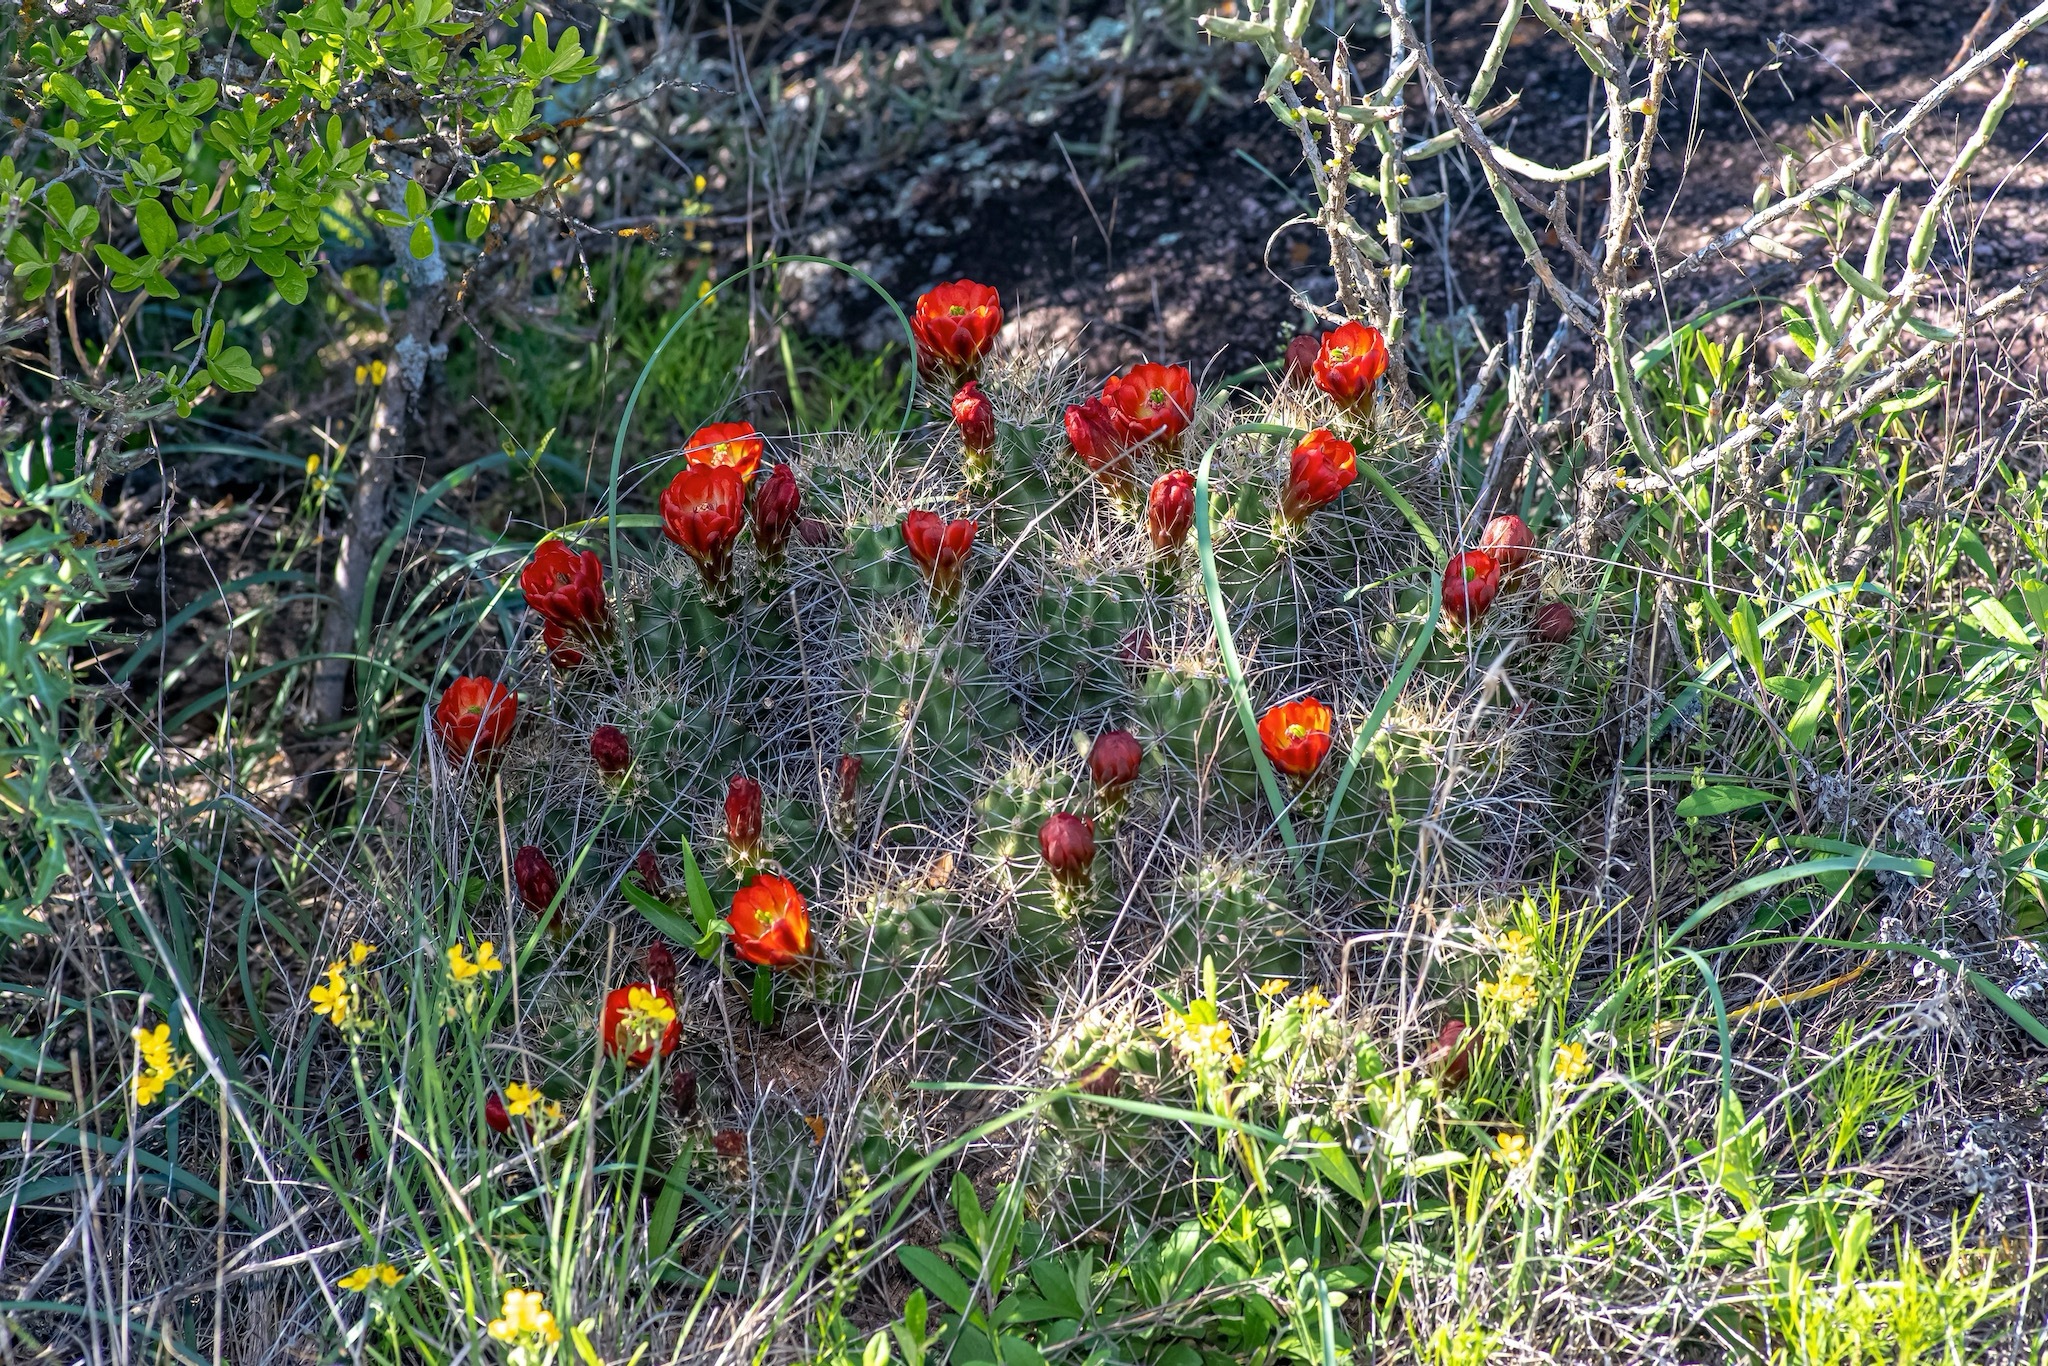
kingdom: Plantae
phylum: Tracheophyta
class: Magnoliopsida
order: Caryophyllales
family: Cactaceae
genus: Echinocereus
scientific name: Echinocereus coccineus
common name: Scarlet hedgehog cactus
